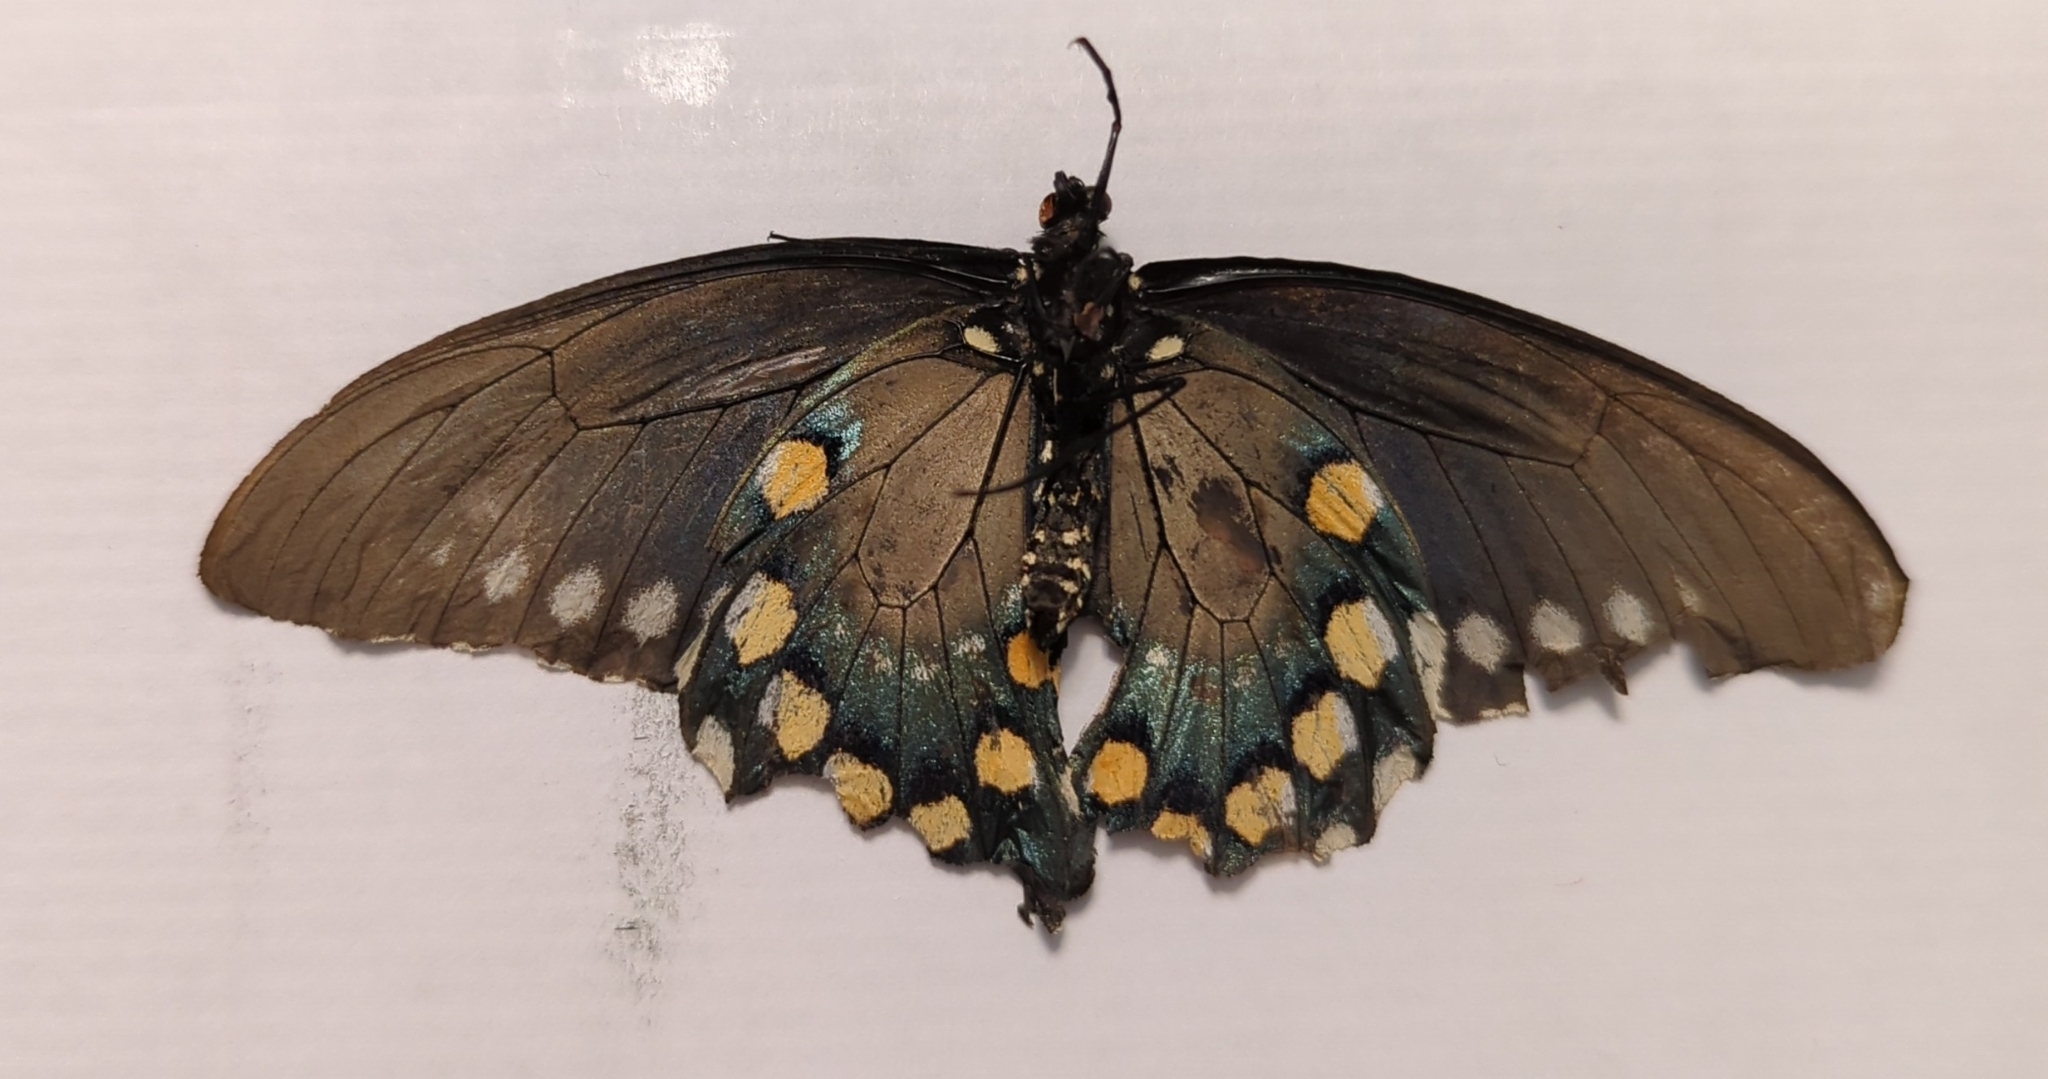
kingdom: Animalia
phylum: Arthropoda
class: Insecta
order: Lepidoptera
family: Papilionidae
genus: Battus
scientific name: Battus philenor
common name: Pipevine swallowtail
